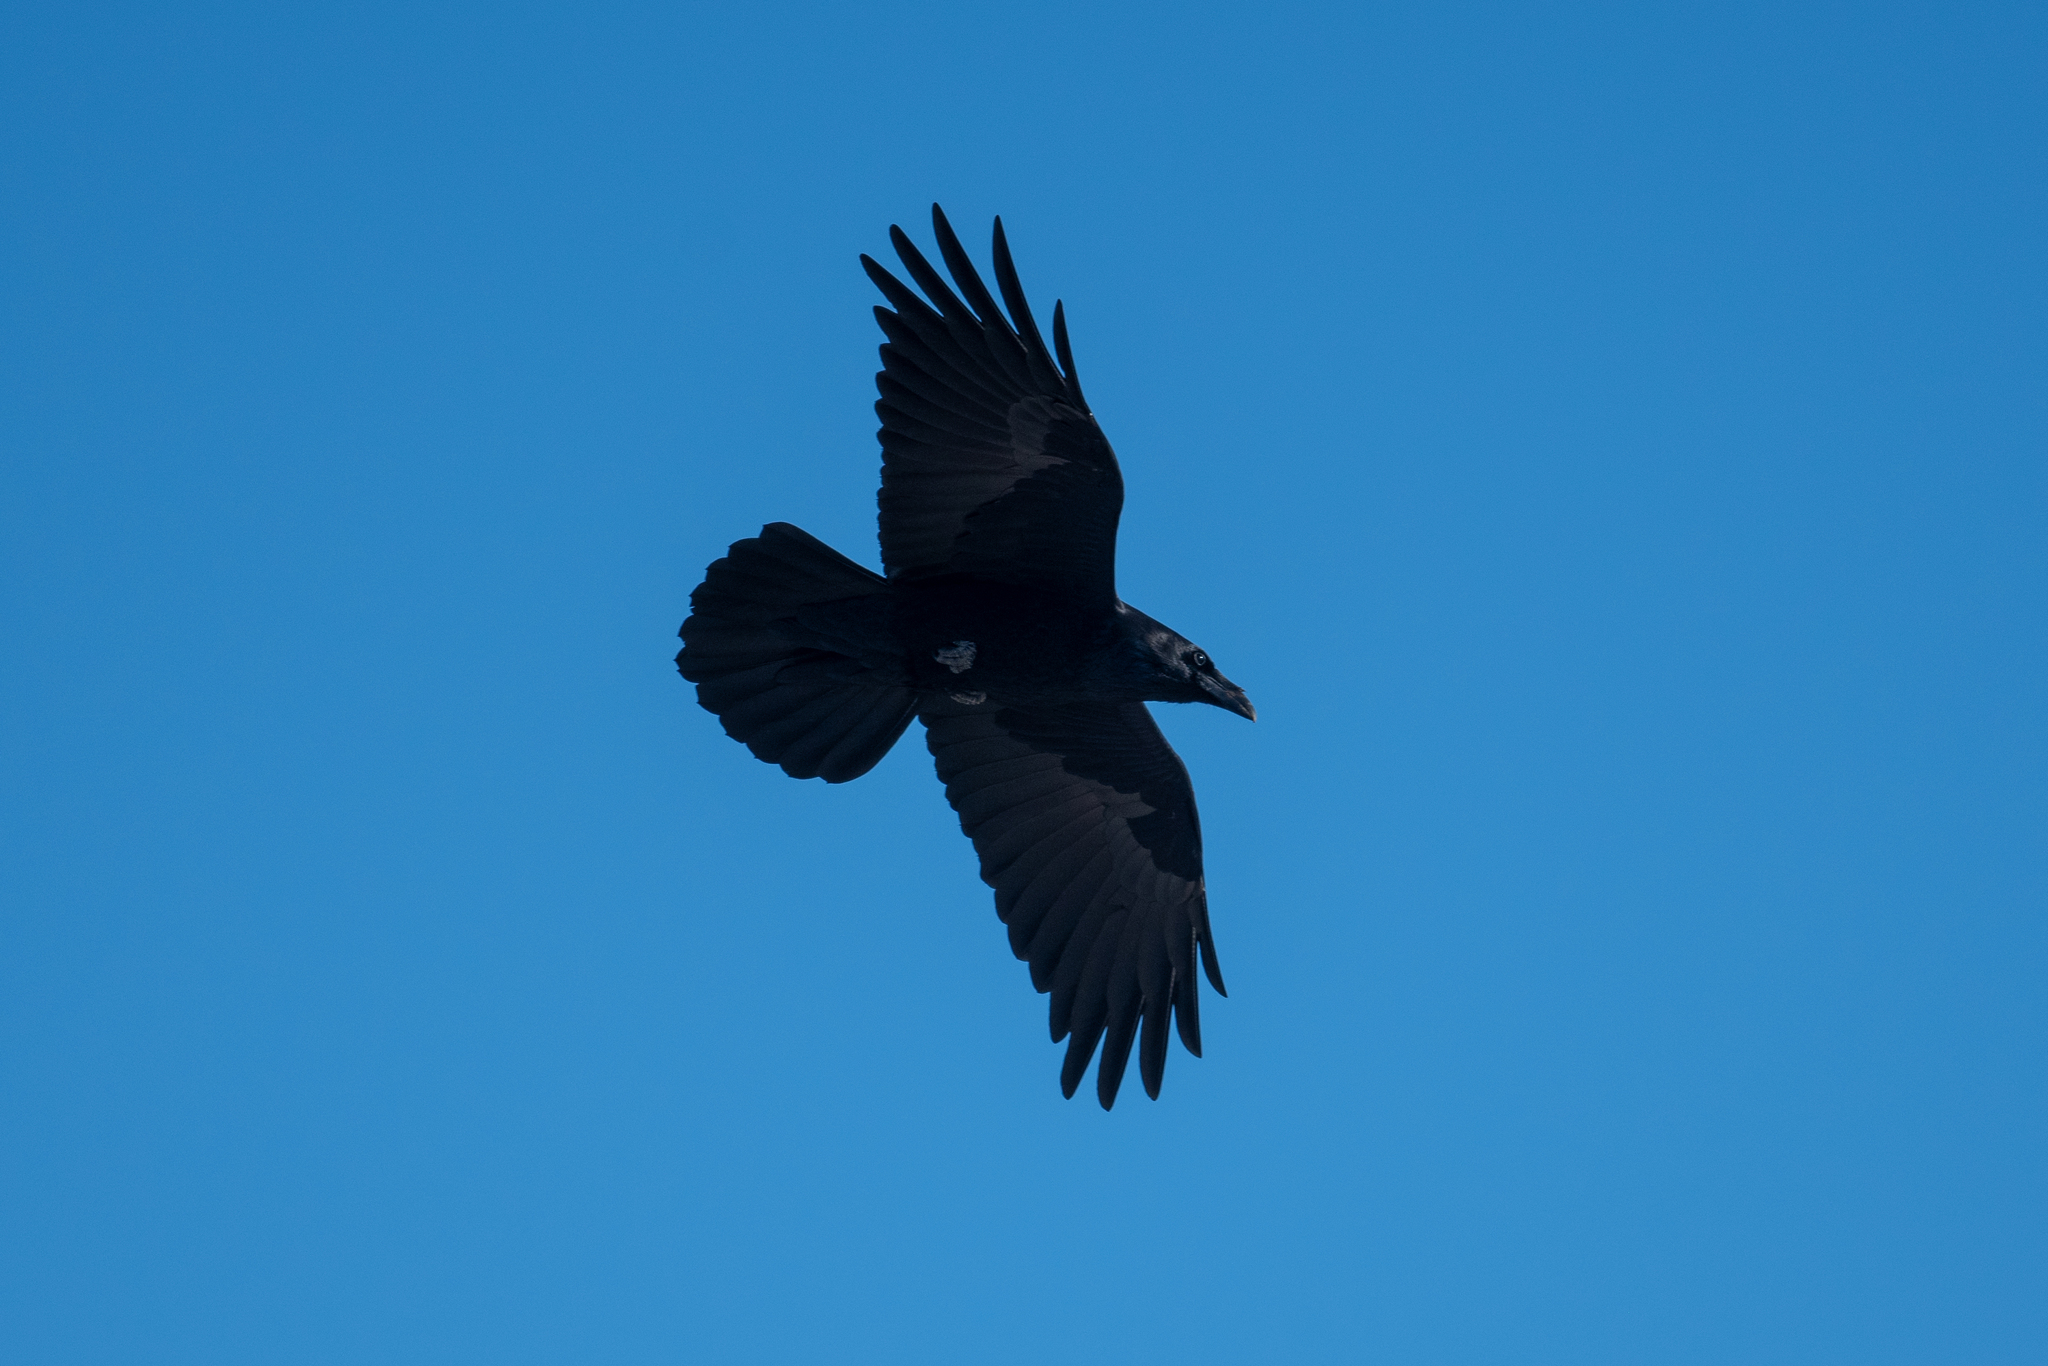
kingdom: Animalia
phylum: Chordata
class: Aves
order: Passeriformes
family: Corvidae
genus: Corvus
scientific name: Corvus corax
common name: Common raven
